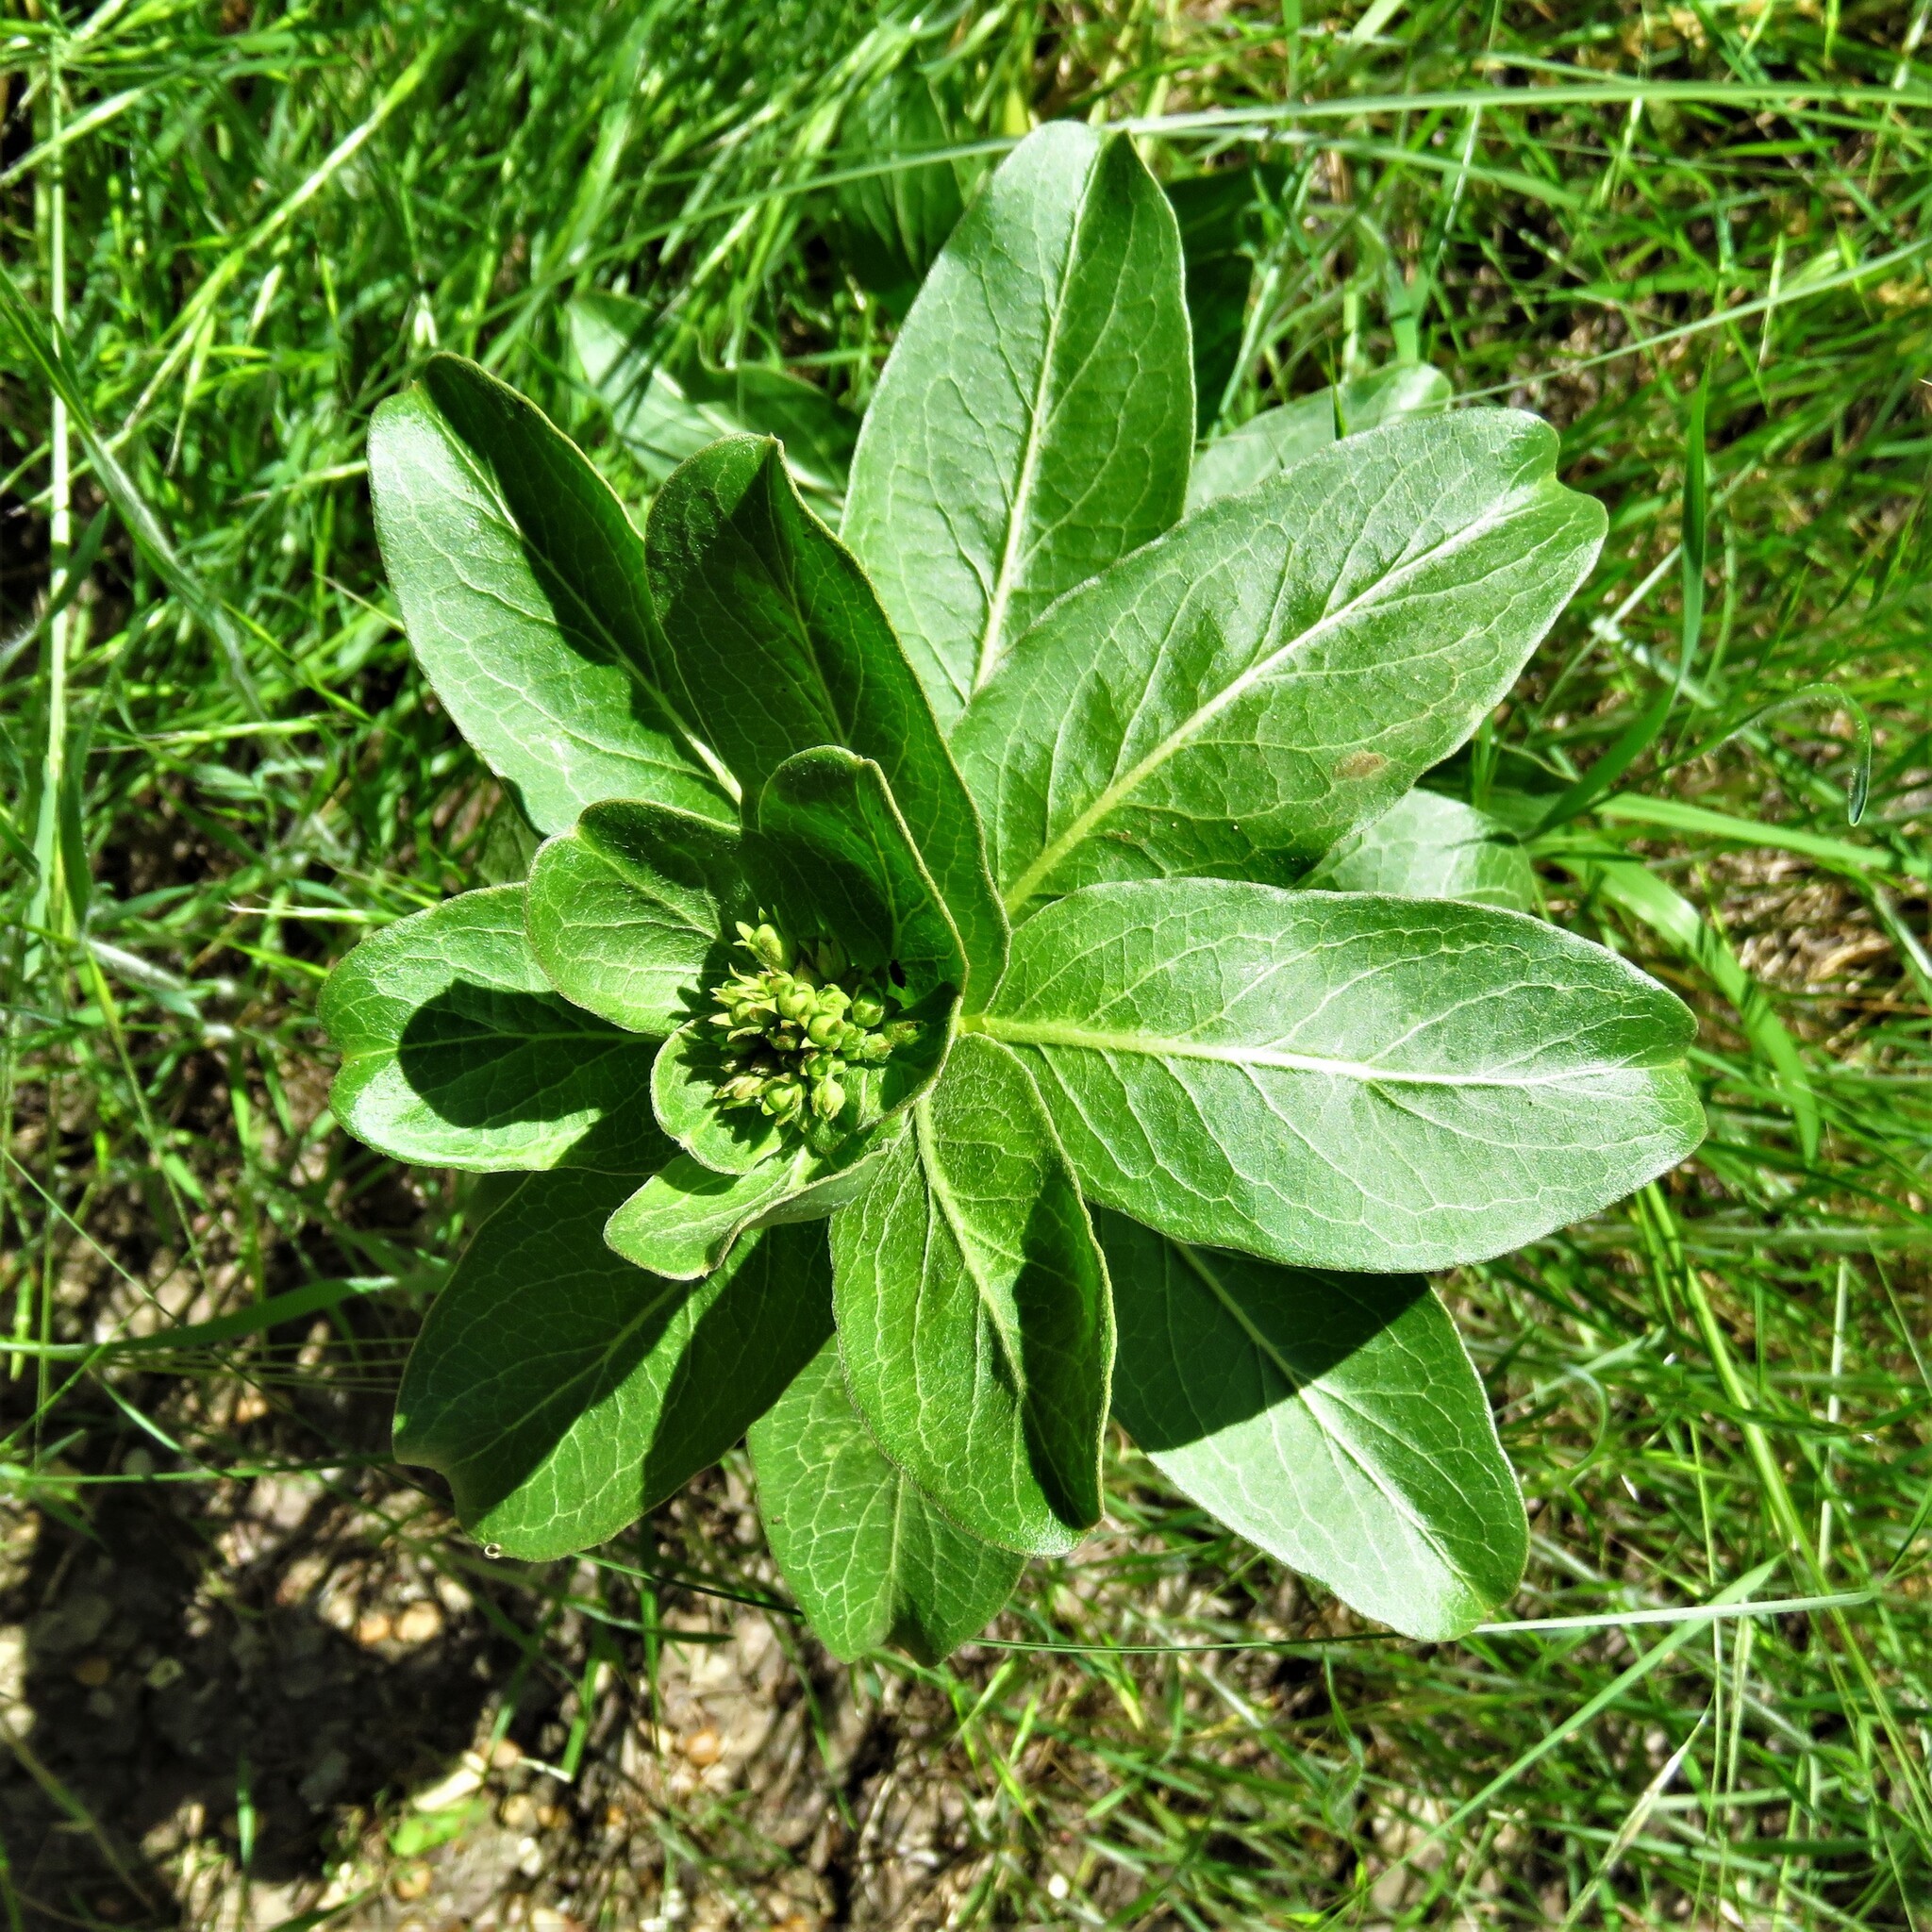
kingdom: Plantae
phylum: Tracheophyta
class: Magnoliopsida
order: Gentianales
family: Apocynaceae
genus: Asclepias
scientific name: Asclepias viridis
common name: Antelope-horns
